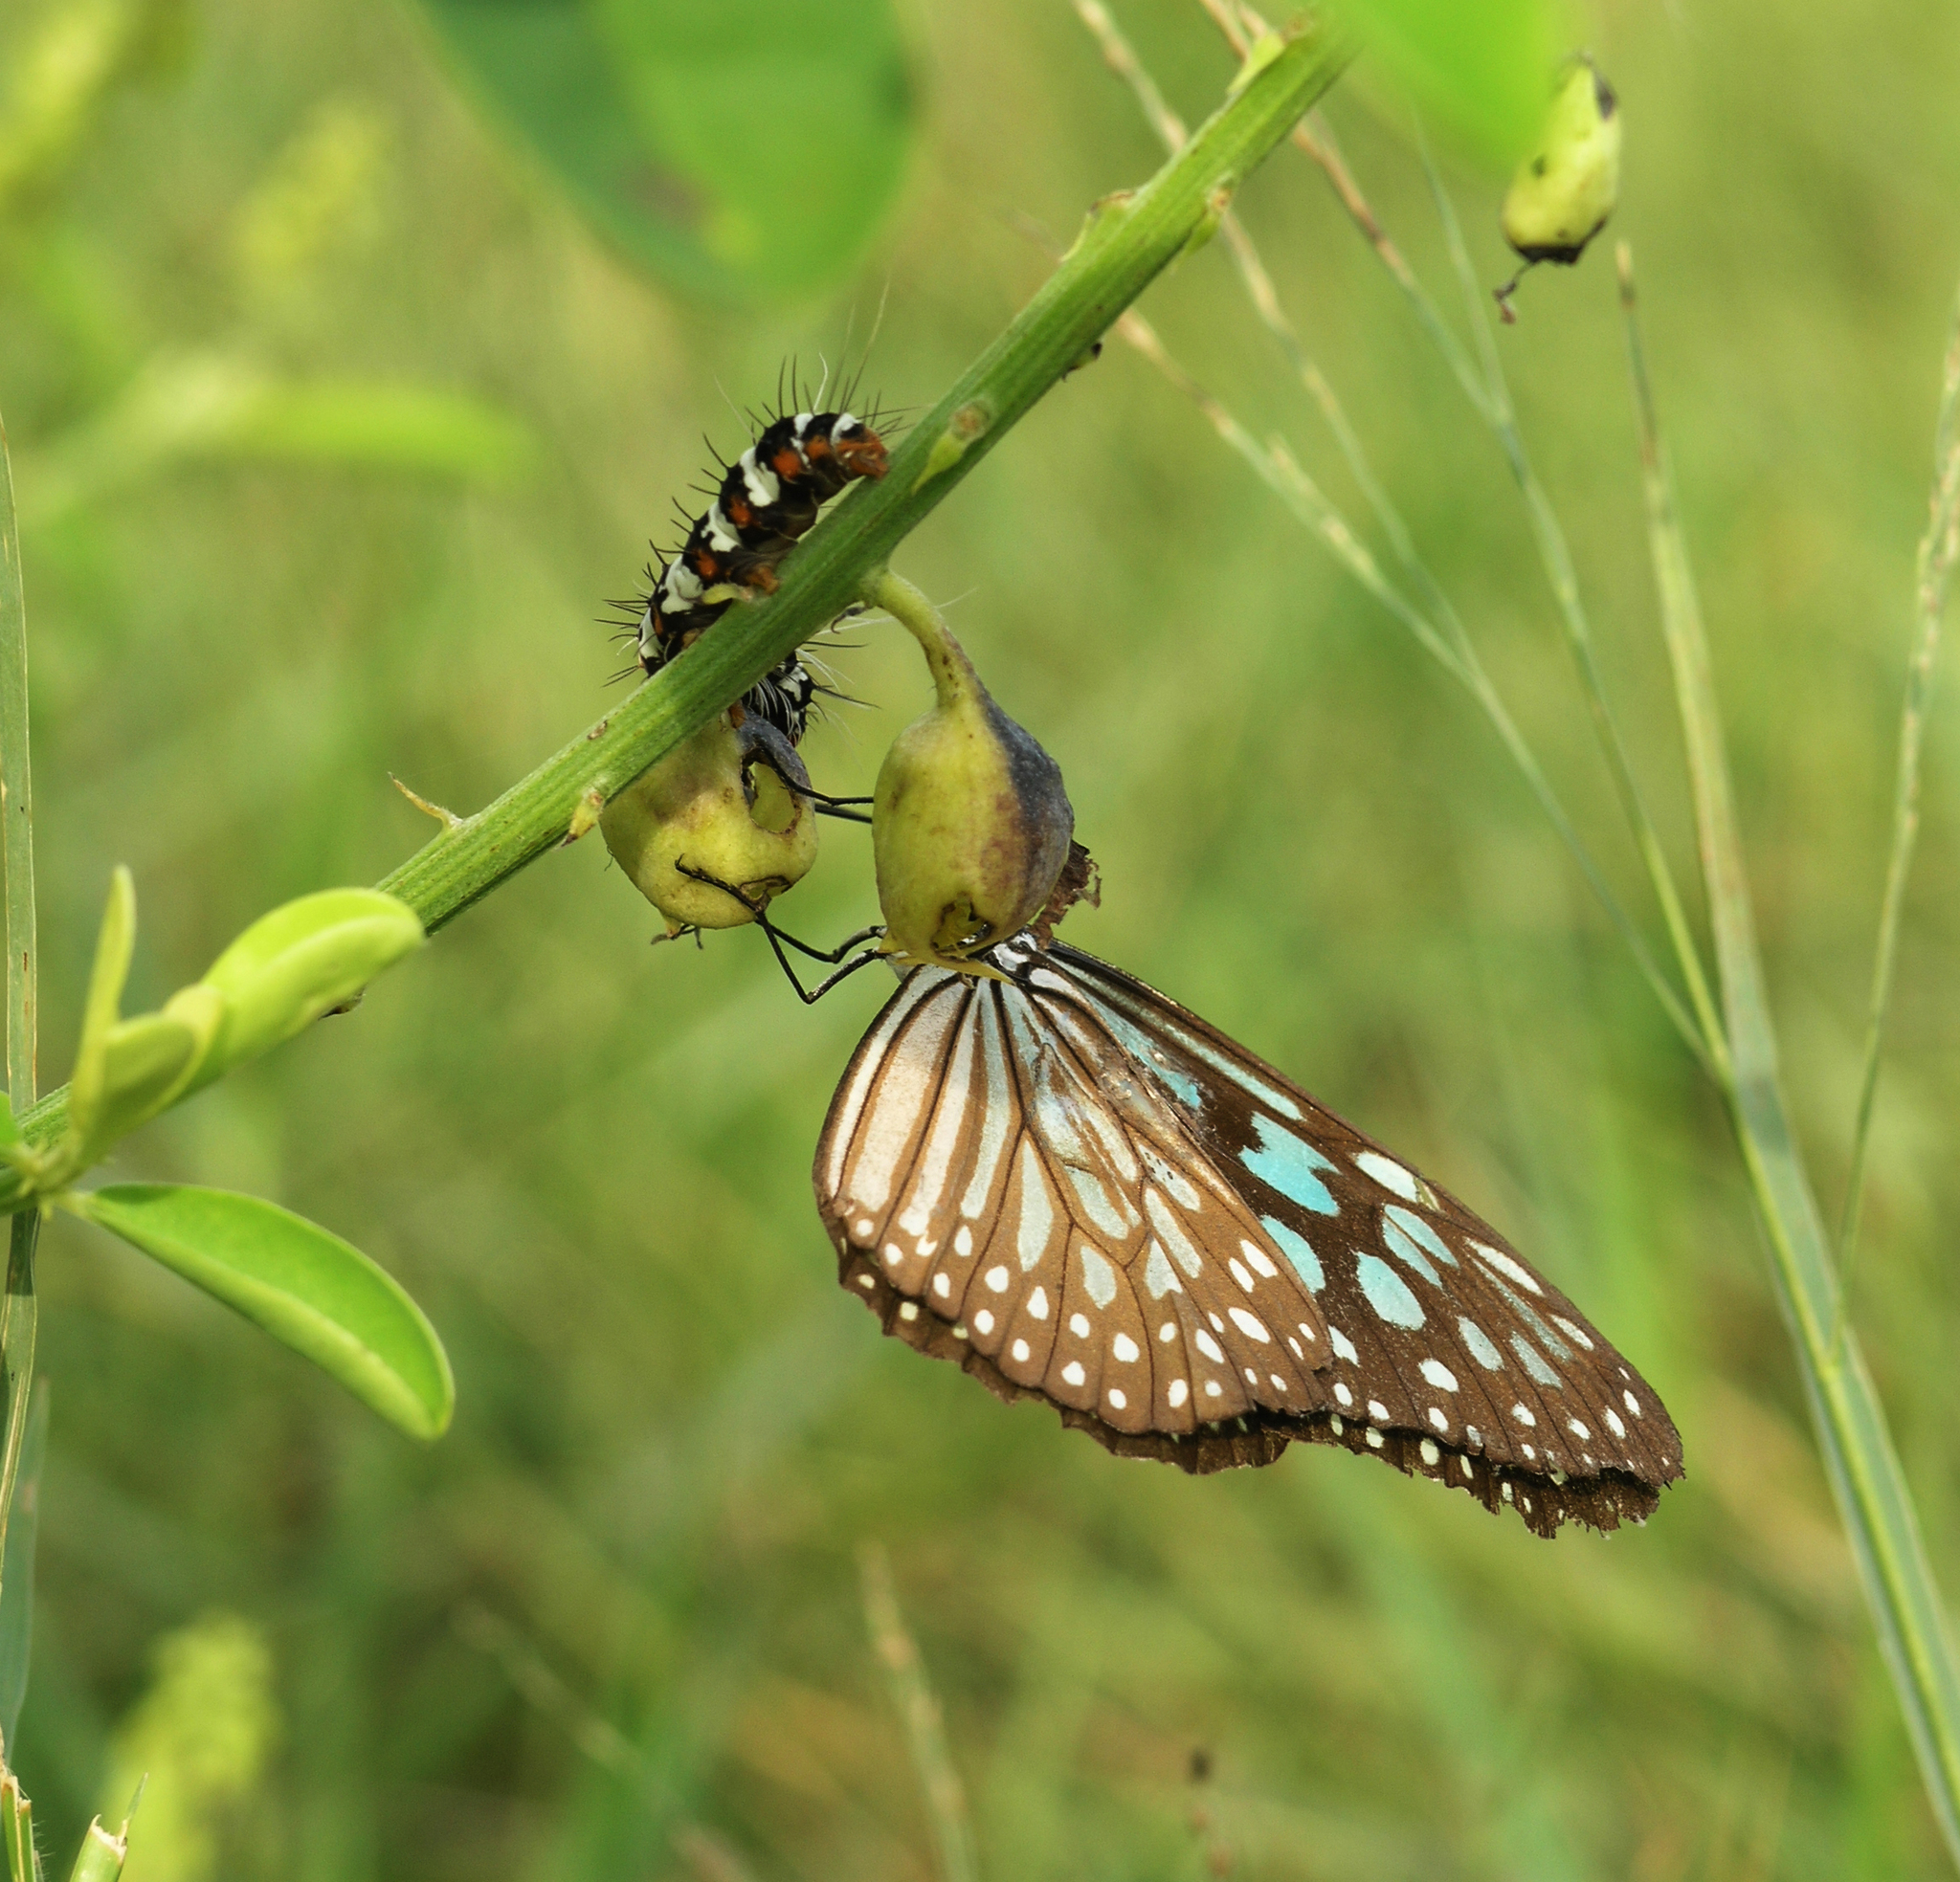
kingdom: Animalia
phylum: Arthropoda
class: Insecta
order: Lepidoptera
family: Nymphalidae
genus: Ideopsis
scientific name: Ideopsis similis
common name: Ceylon blue glassy tiger
